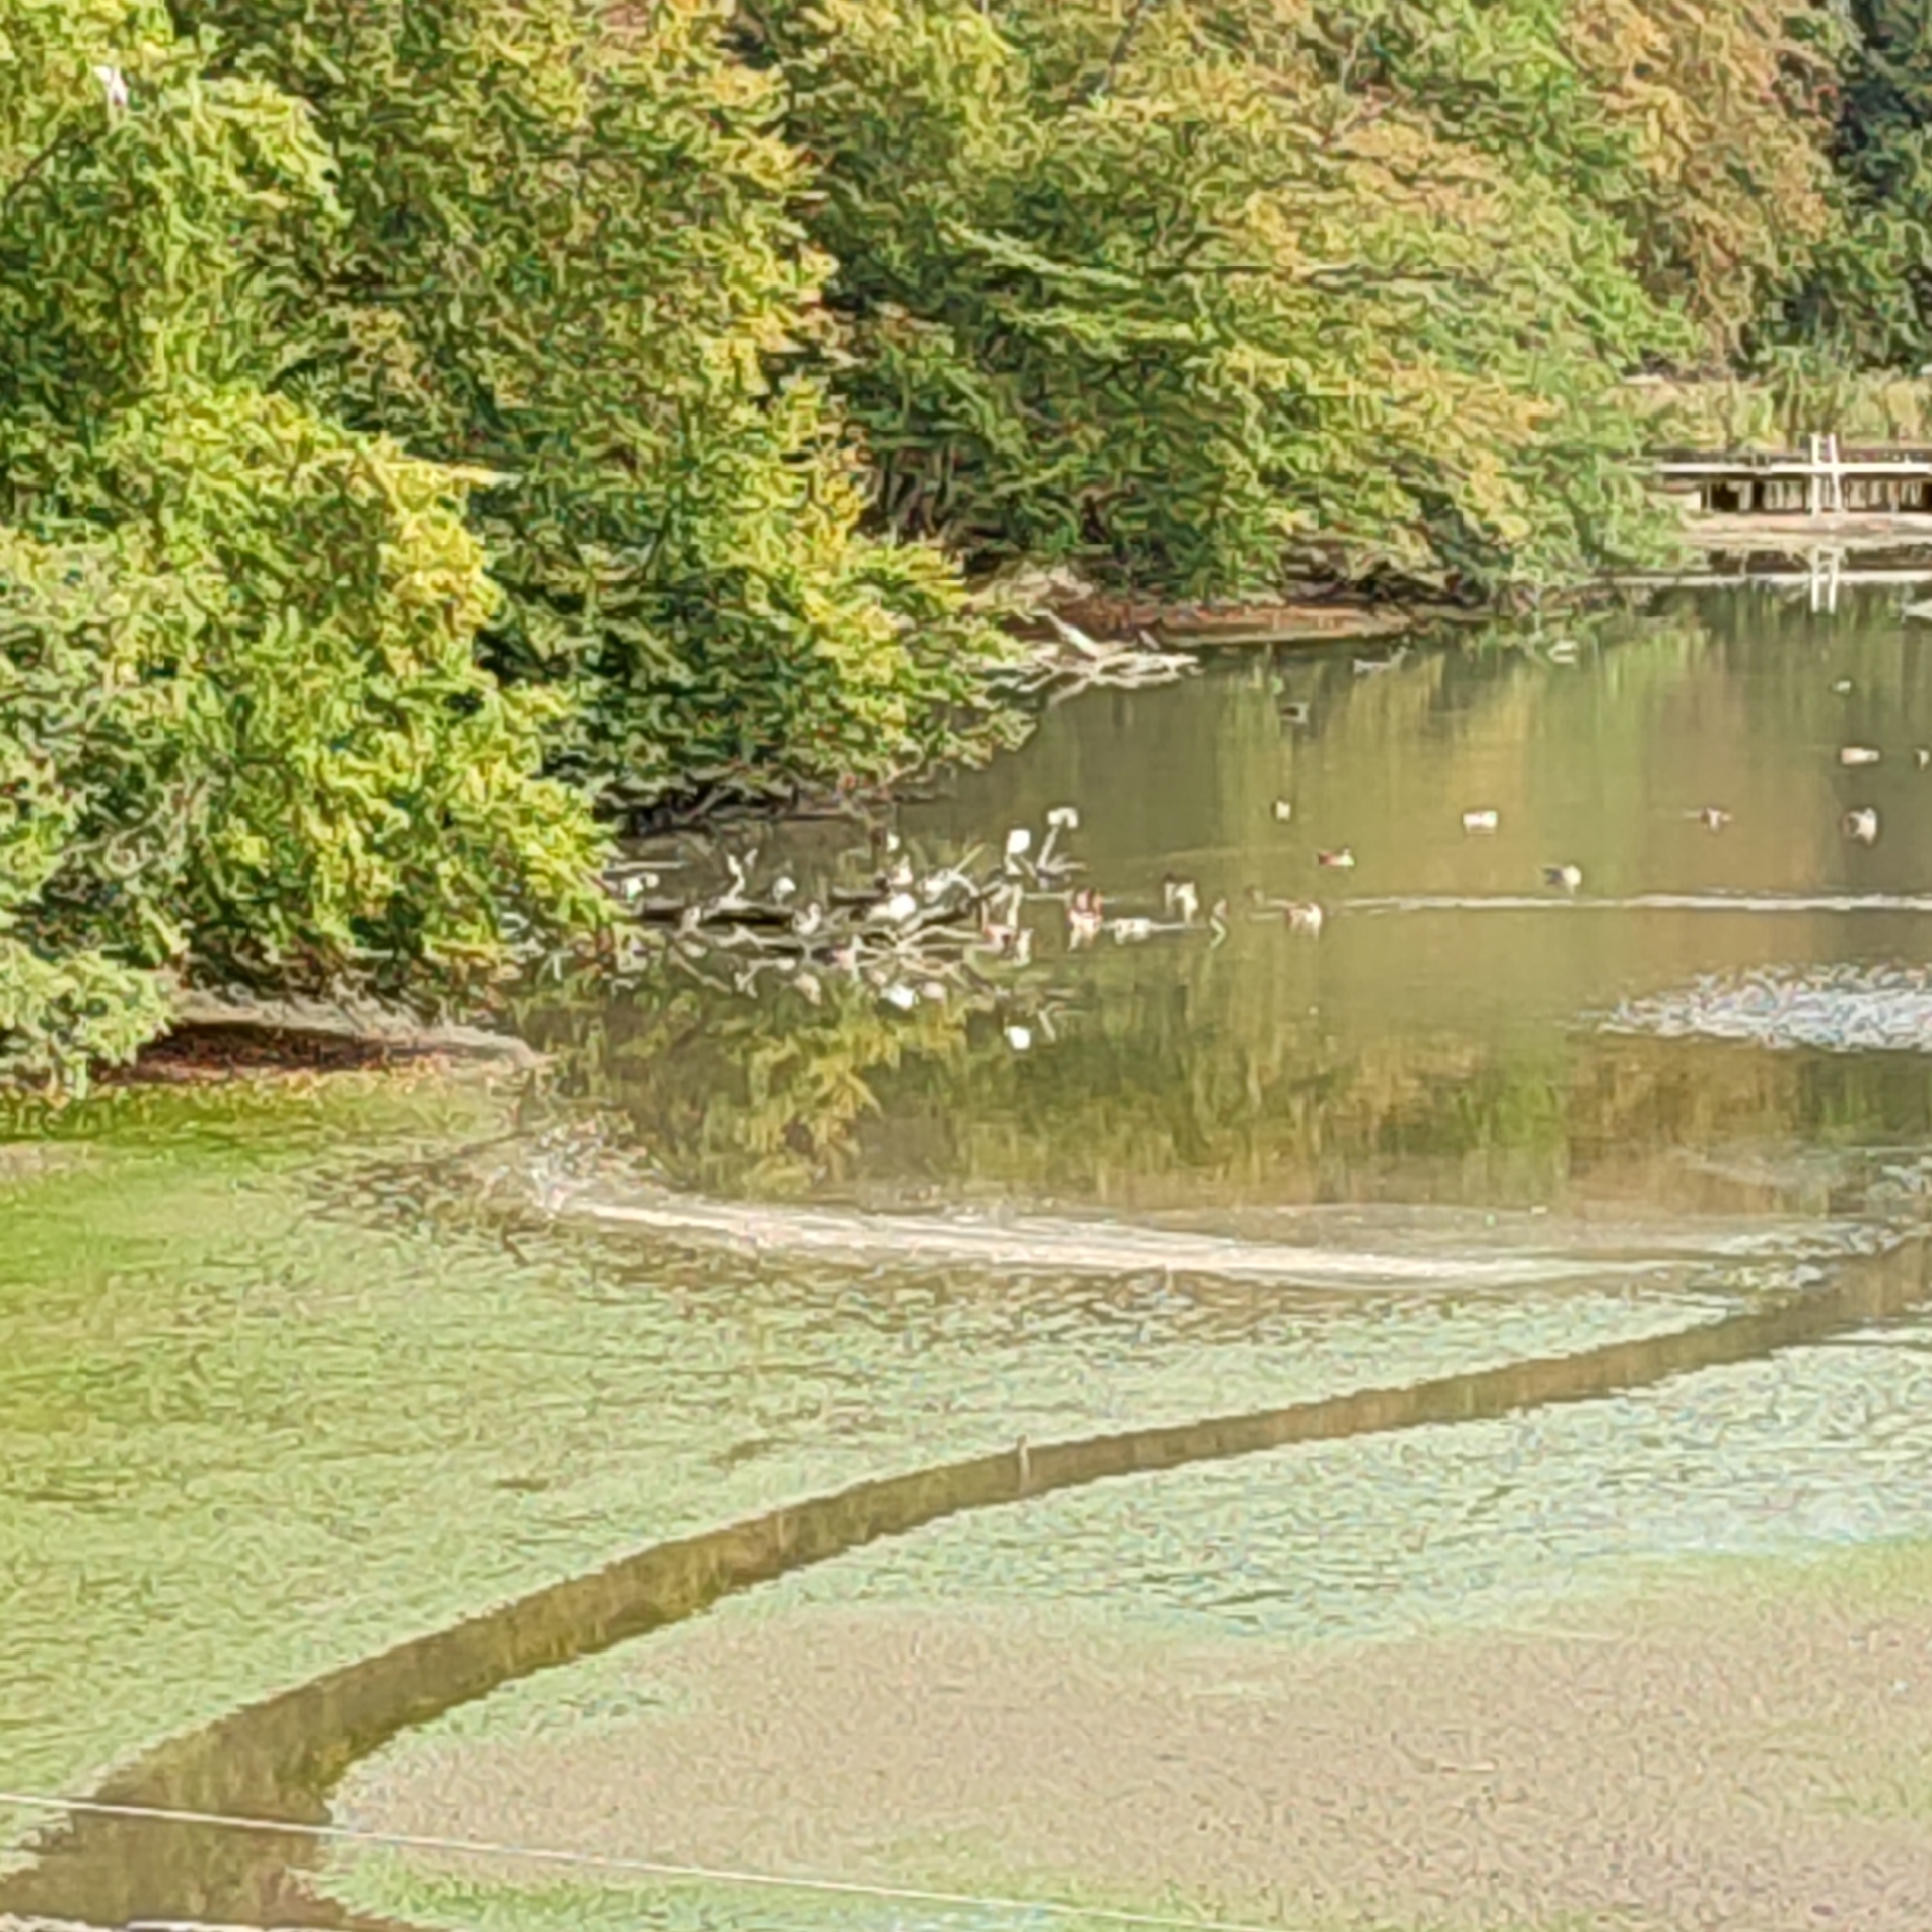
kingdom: Animalia
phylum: Chordata
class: Aves
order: Pelecaniformes
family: Threskiornithidae
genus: Platalea
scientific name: Platalea leucorodia
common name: Eurasian spoonbill
